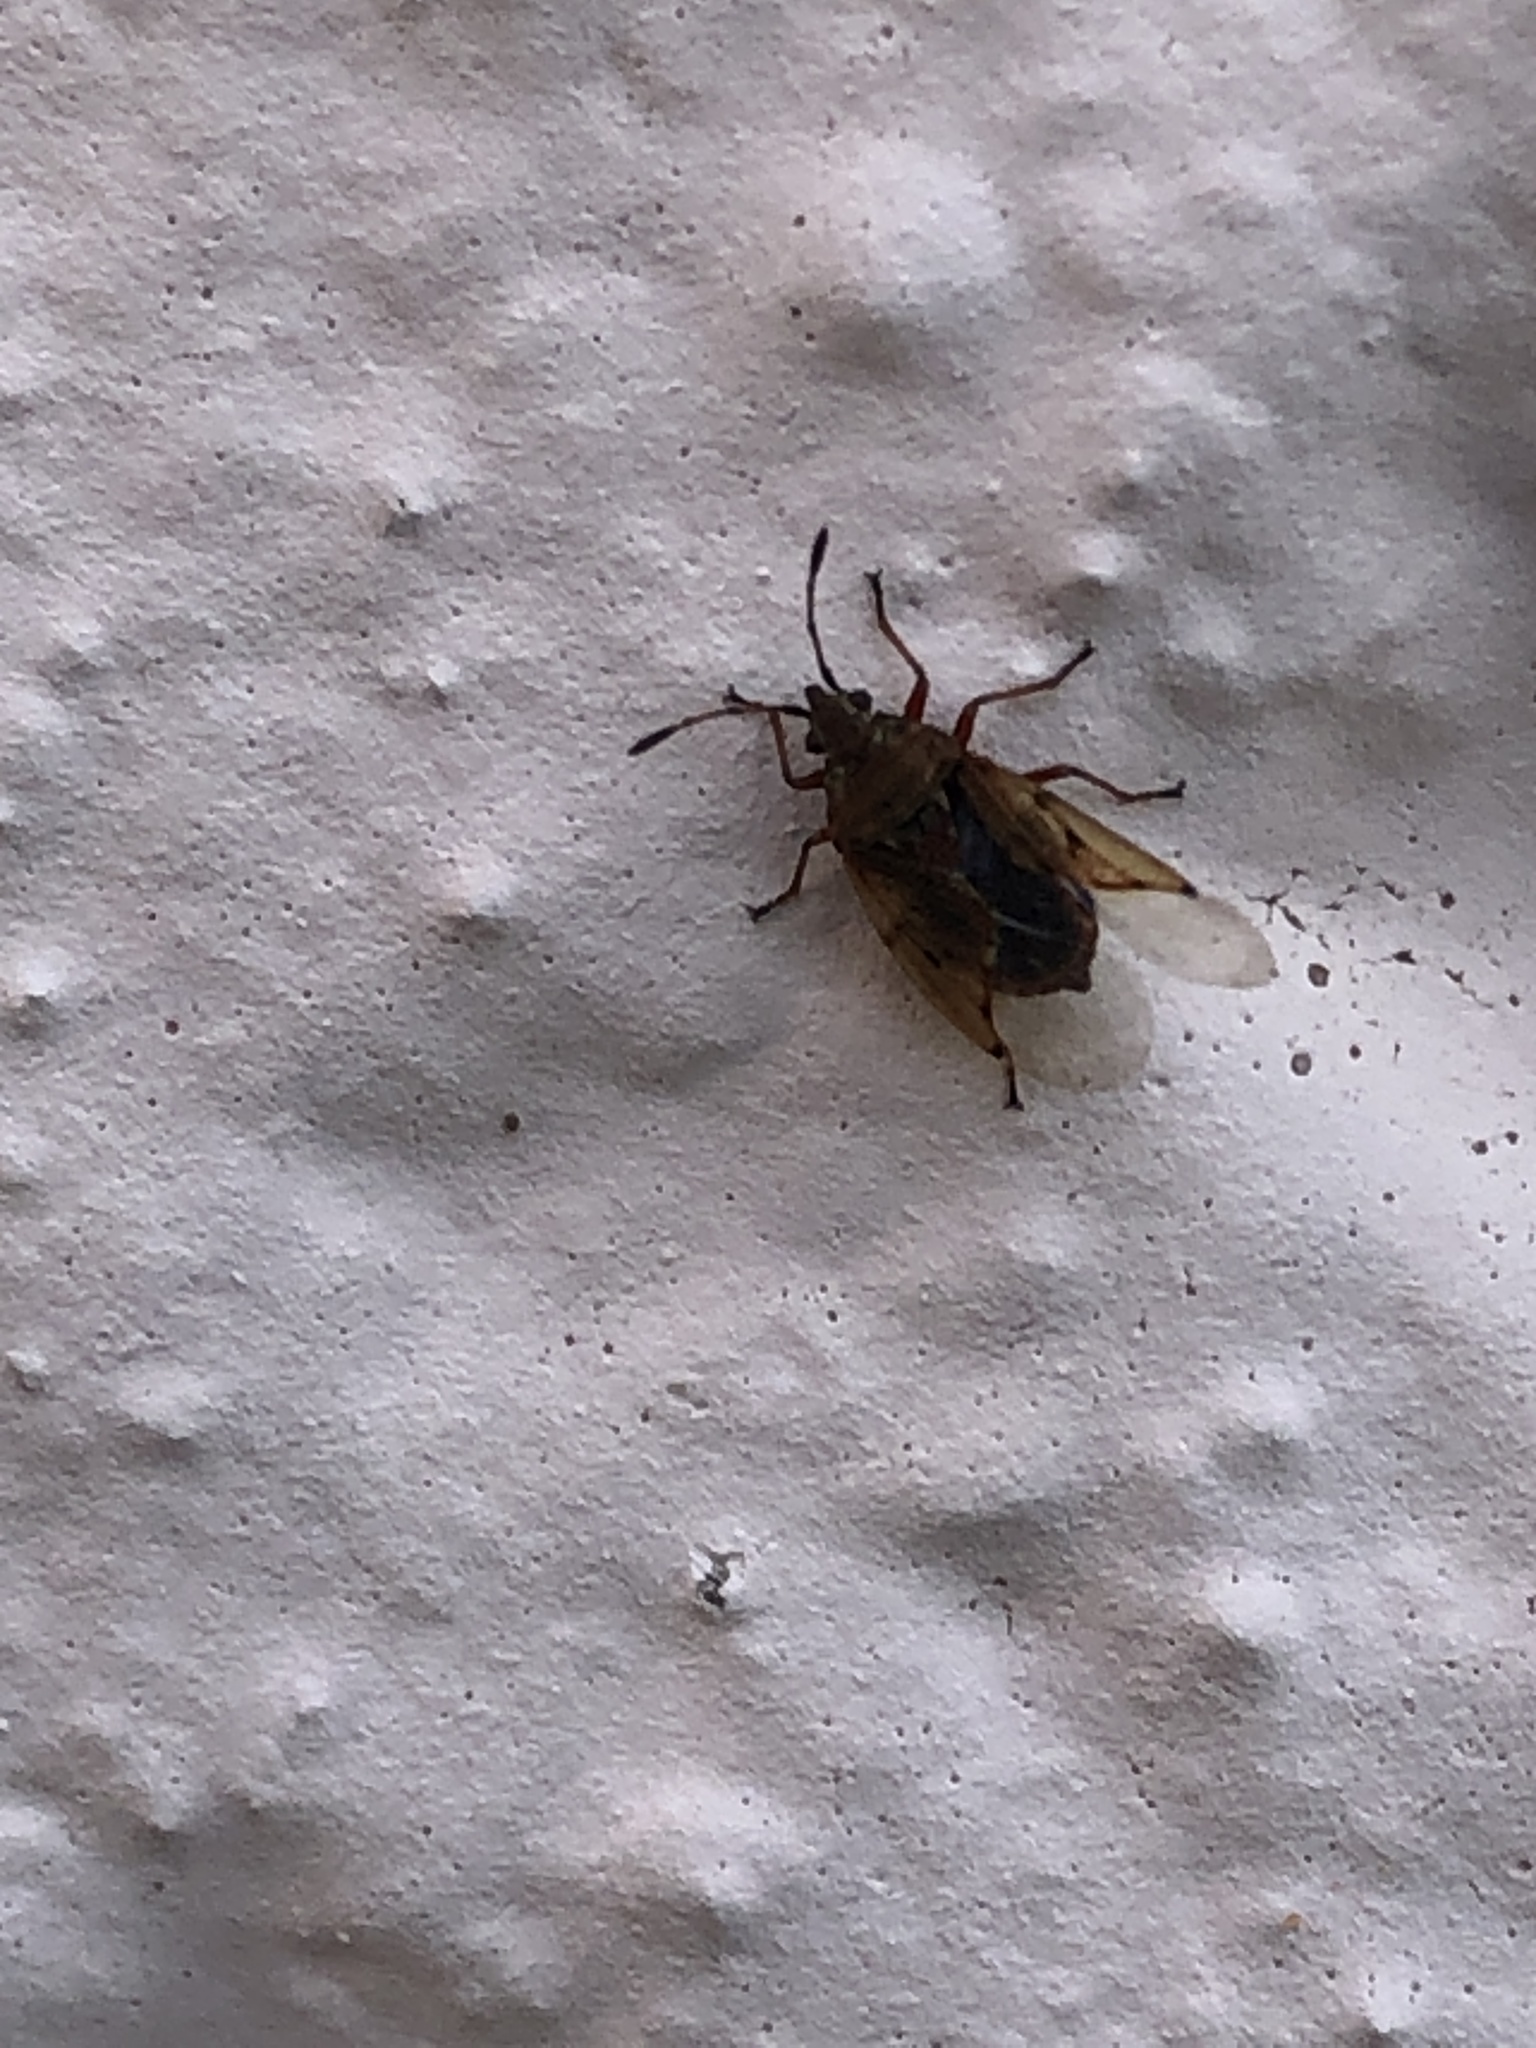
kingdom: Animalia
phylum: Arthropoda
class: Insecta
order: Hemiptera
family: Lygaeidae
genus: Kleidocerys
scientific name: Kleidocerys resedae
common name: Birch catkin bug
